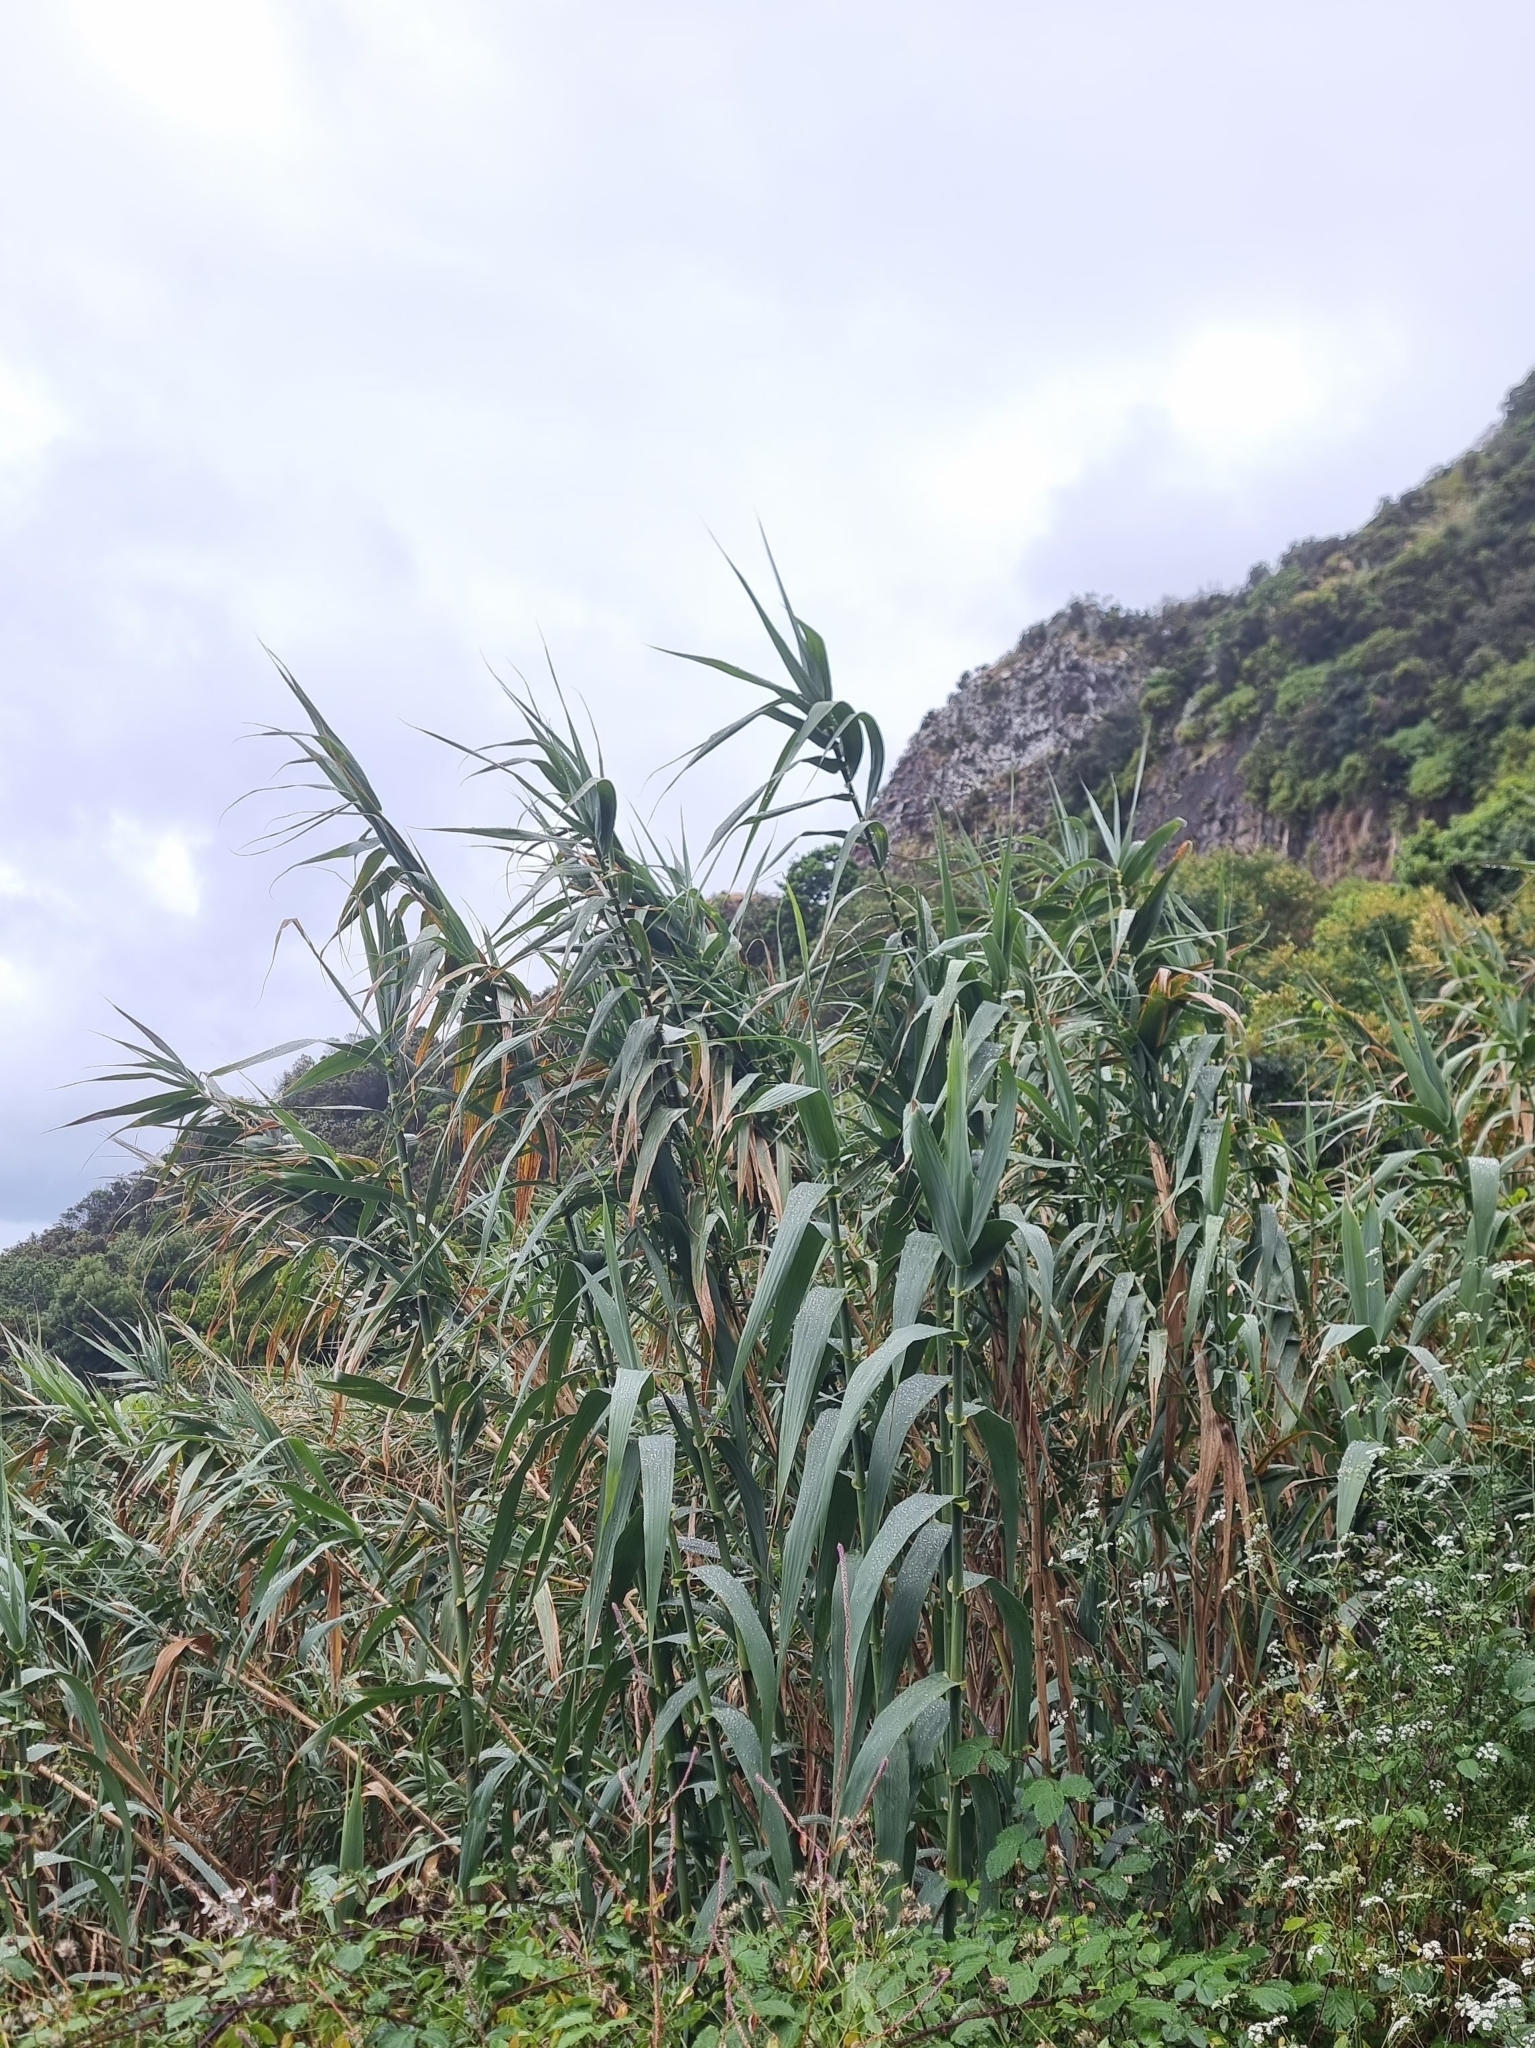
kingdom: Plantae
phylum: Tracheophyta
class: Liliopsida
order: Poales
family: Poaceae
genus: Arundo
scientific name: Arundo donax
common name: Giant reed
